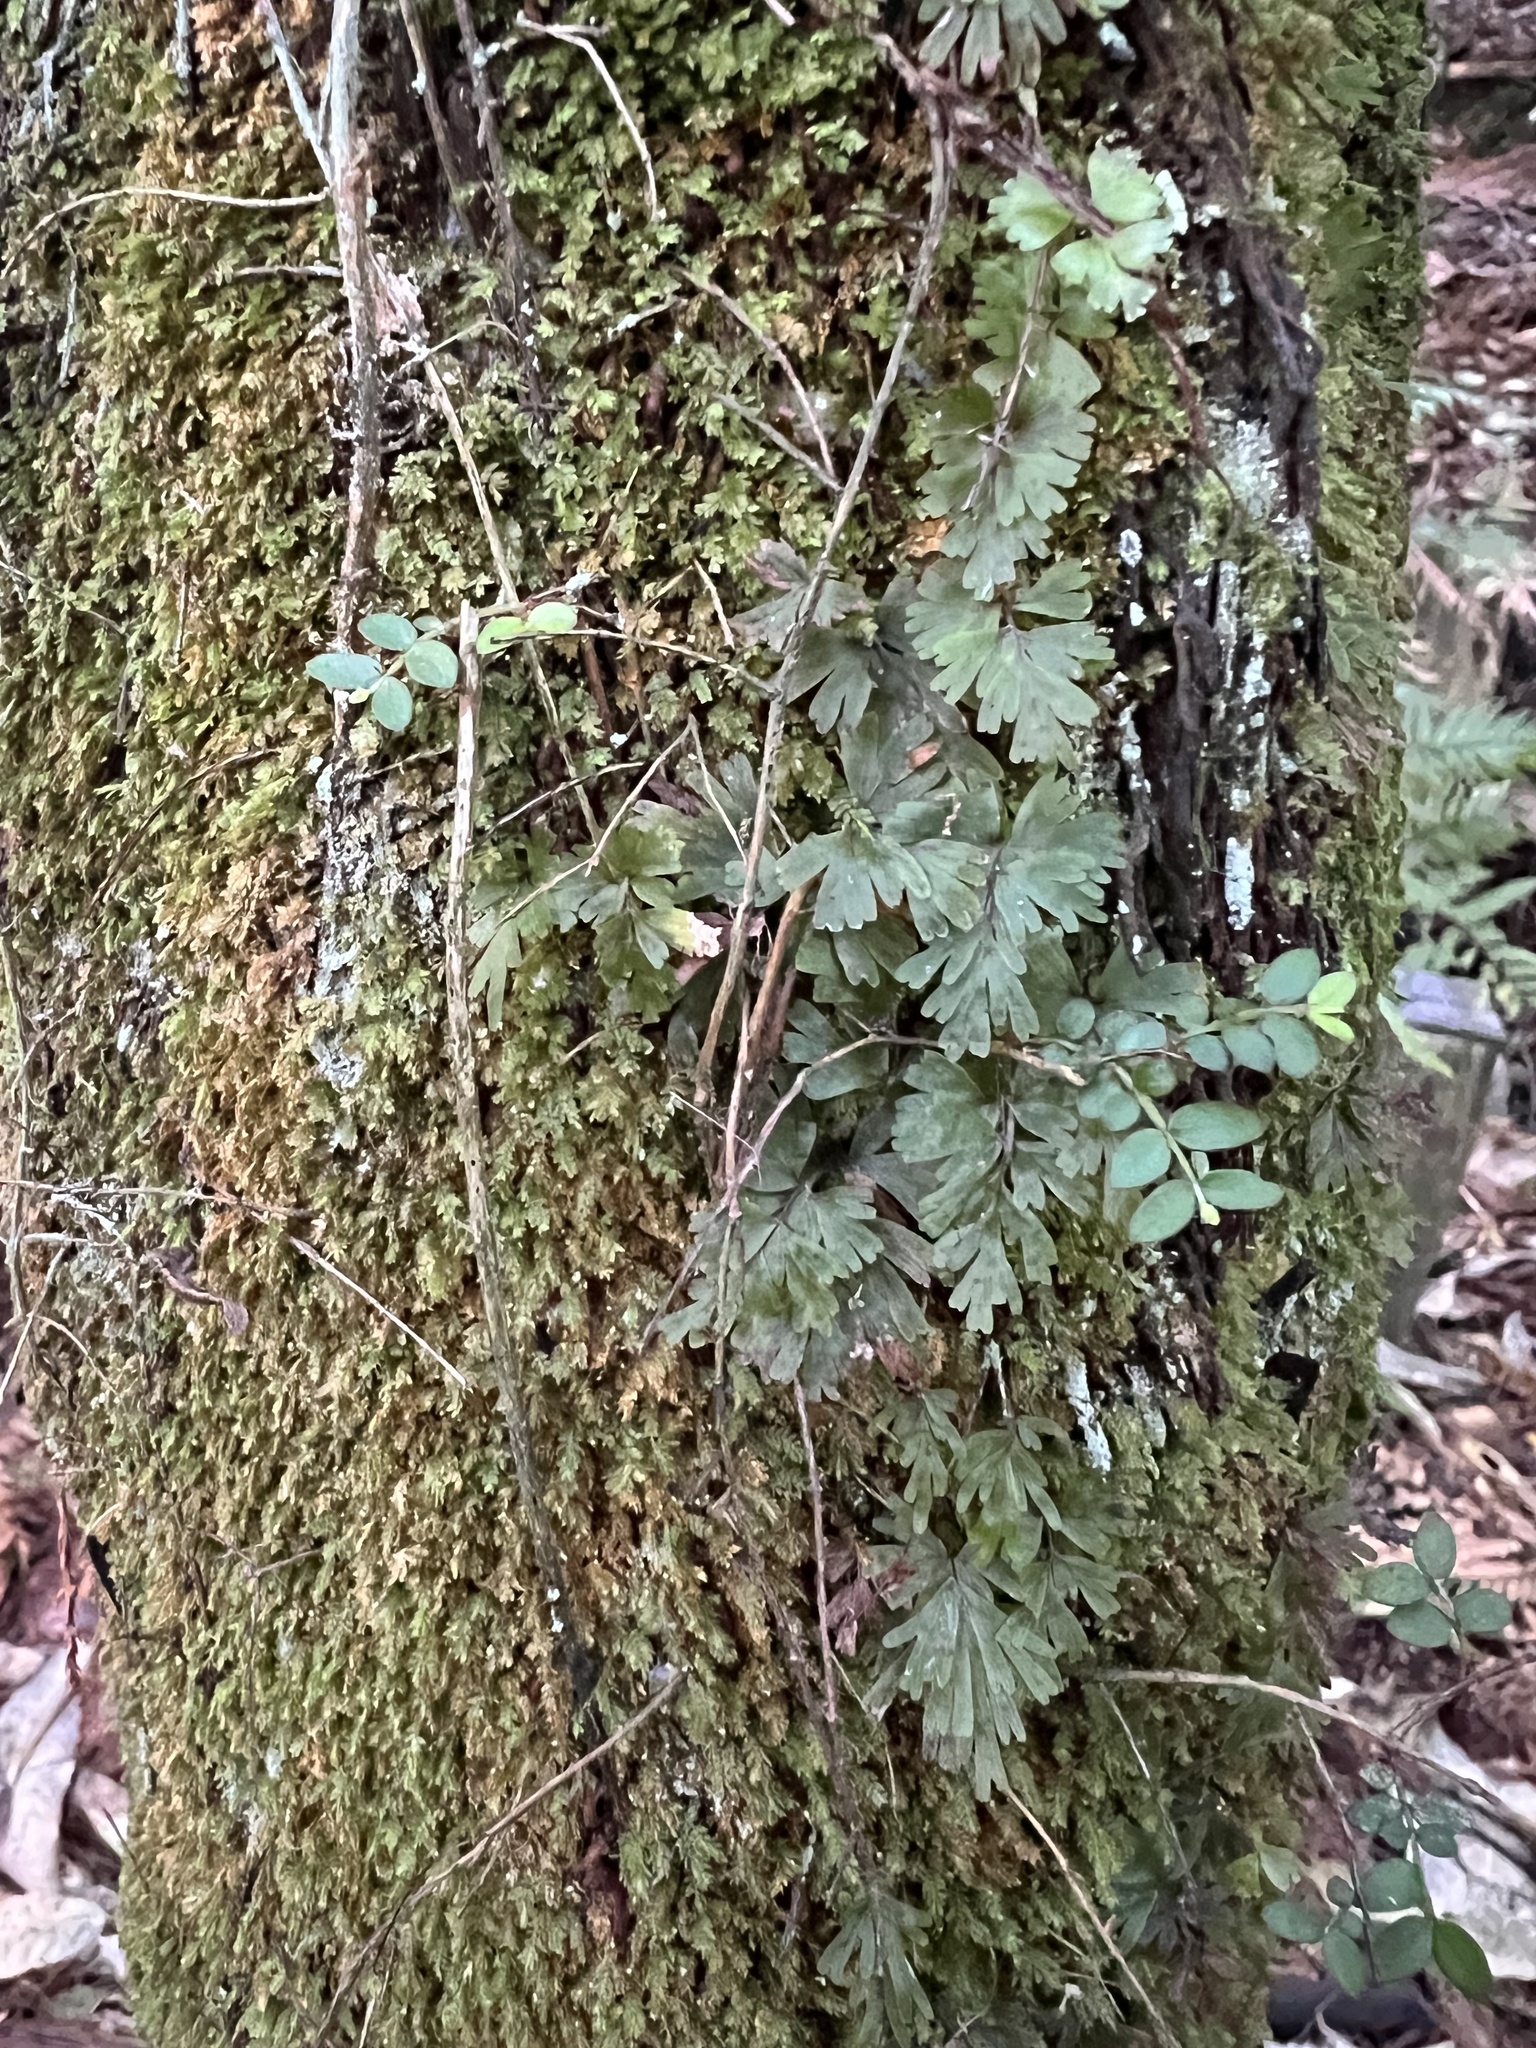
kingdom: Plantae
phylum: Tracheophyta
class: Polypodiopsida
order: Hymenophyllales
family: Hymenophyllaceae
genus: Hymenophyllum
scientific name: Hymenophyllum flabellatum
